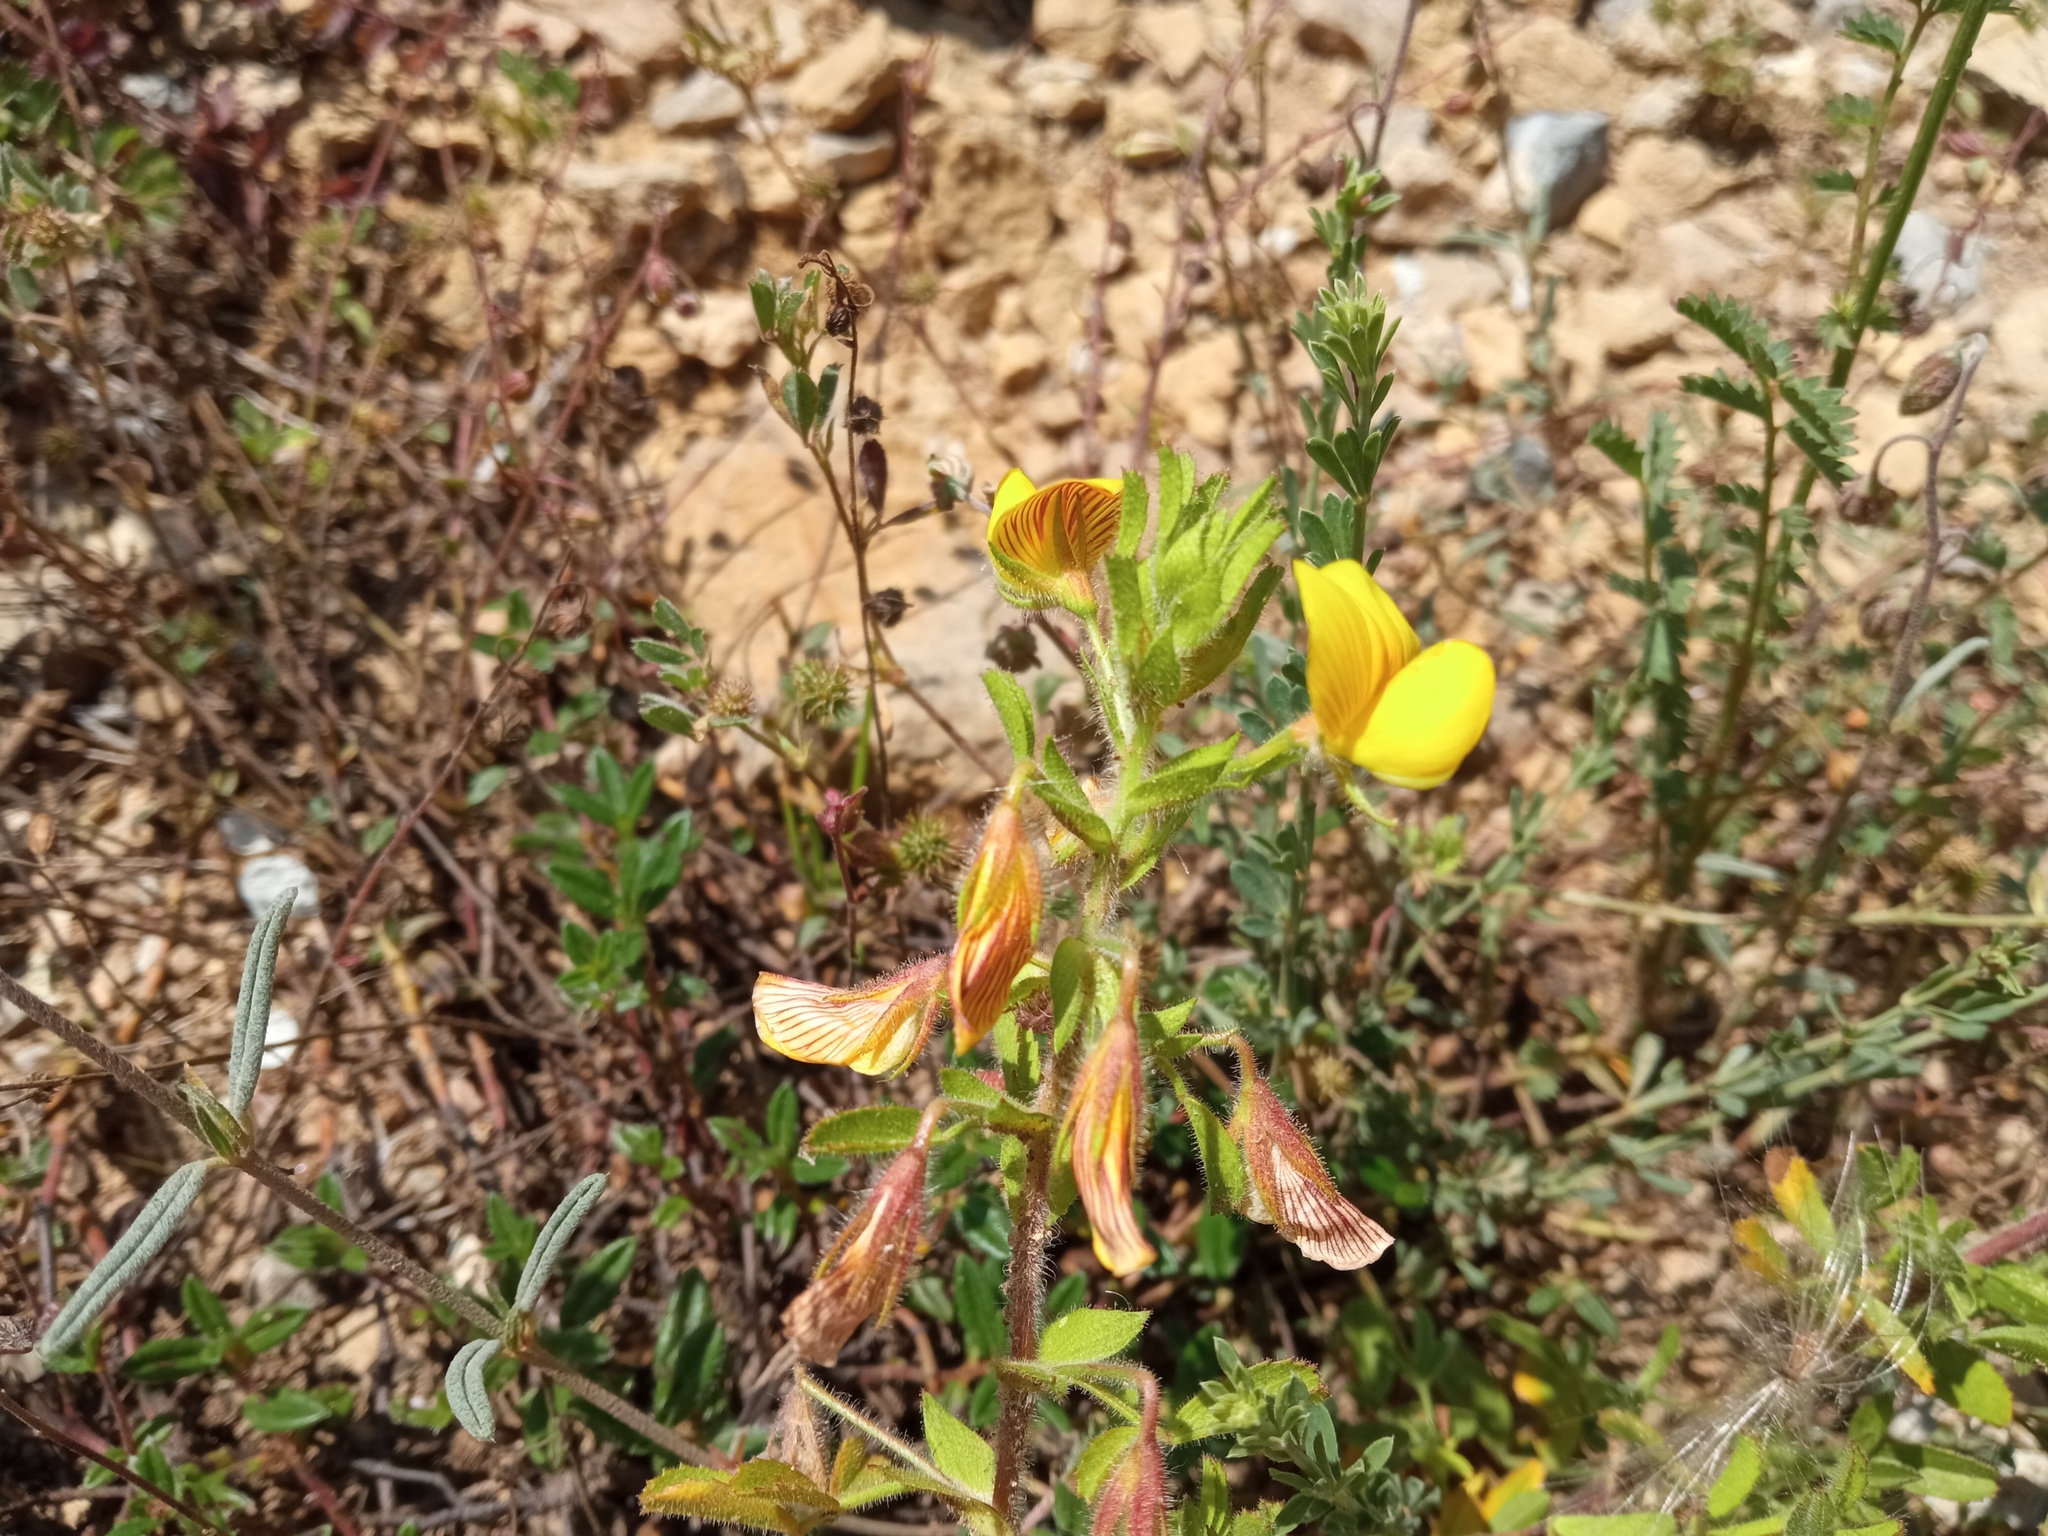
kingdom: Plantae
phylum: Tracheophyta
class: Magnoliopsida
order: Fabales
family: Fabaceae
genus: Ononis
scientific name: Ononis natrix
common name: Yellow restharrow
